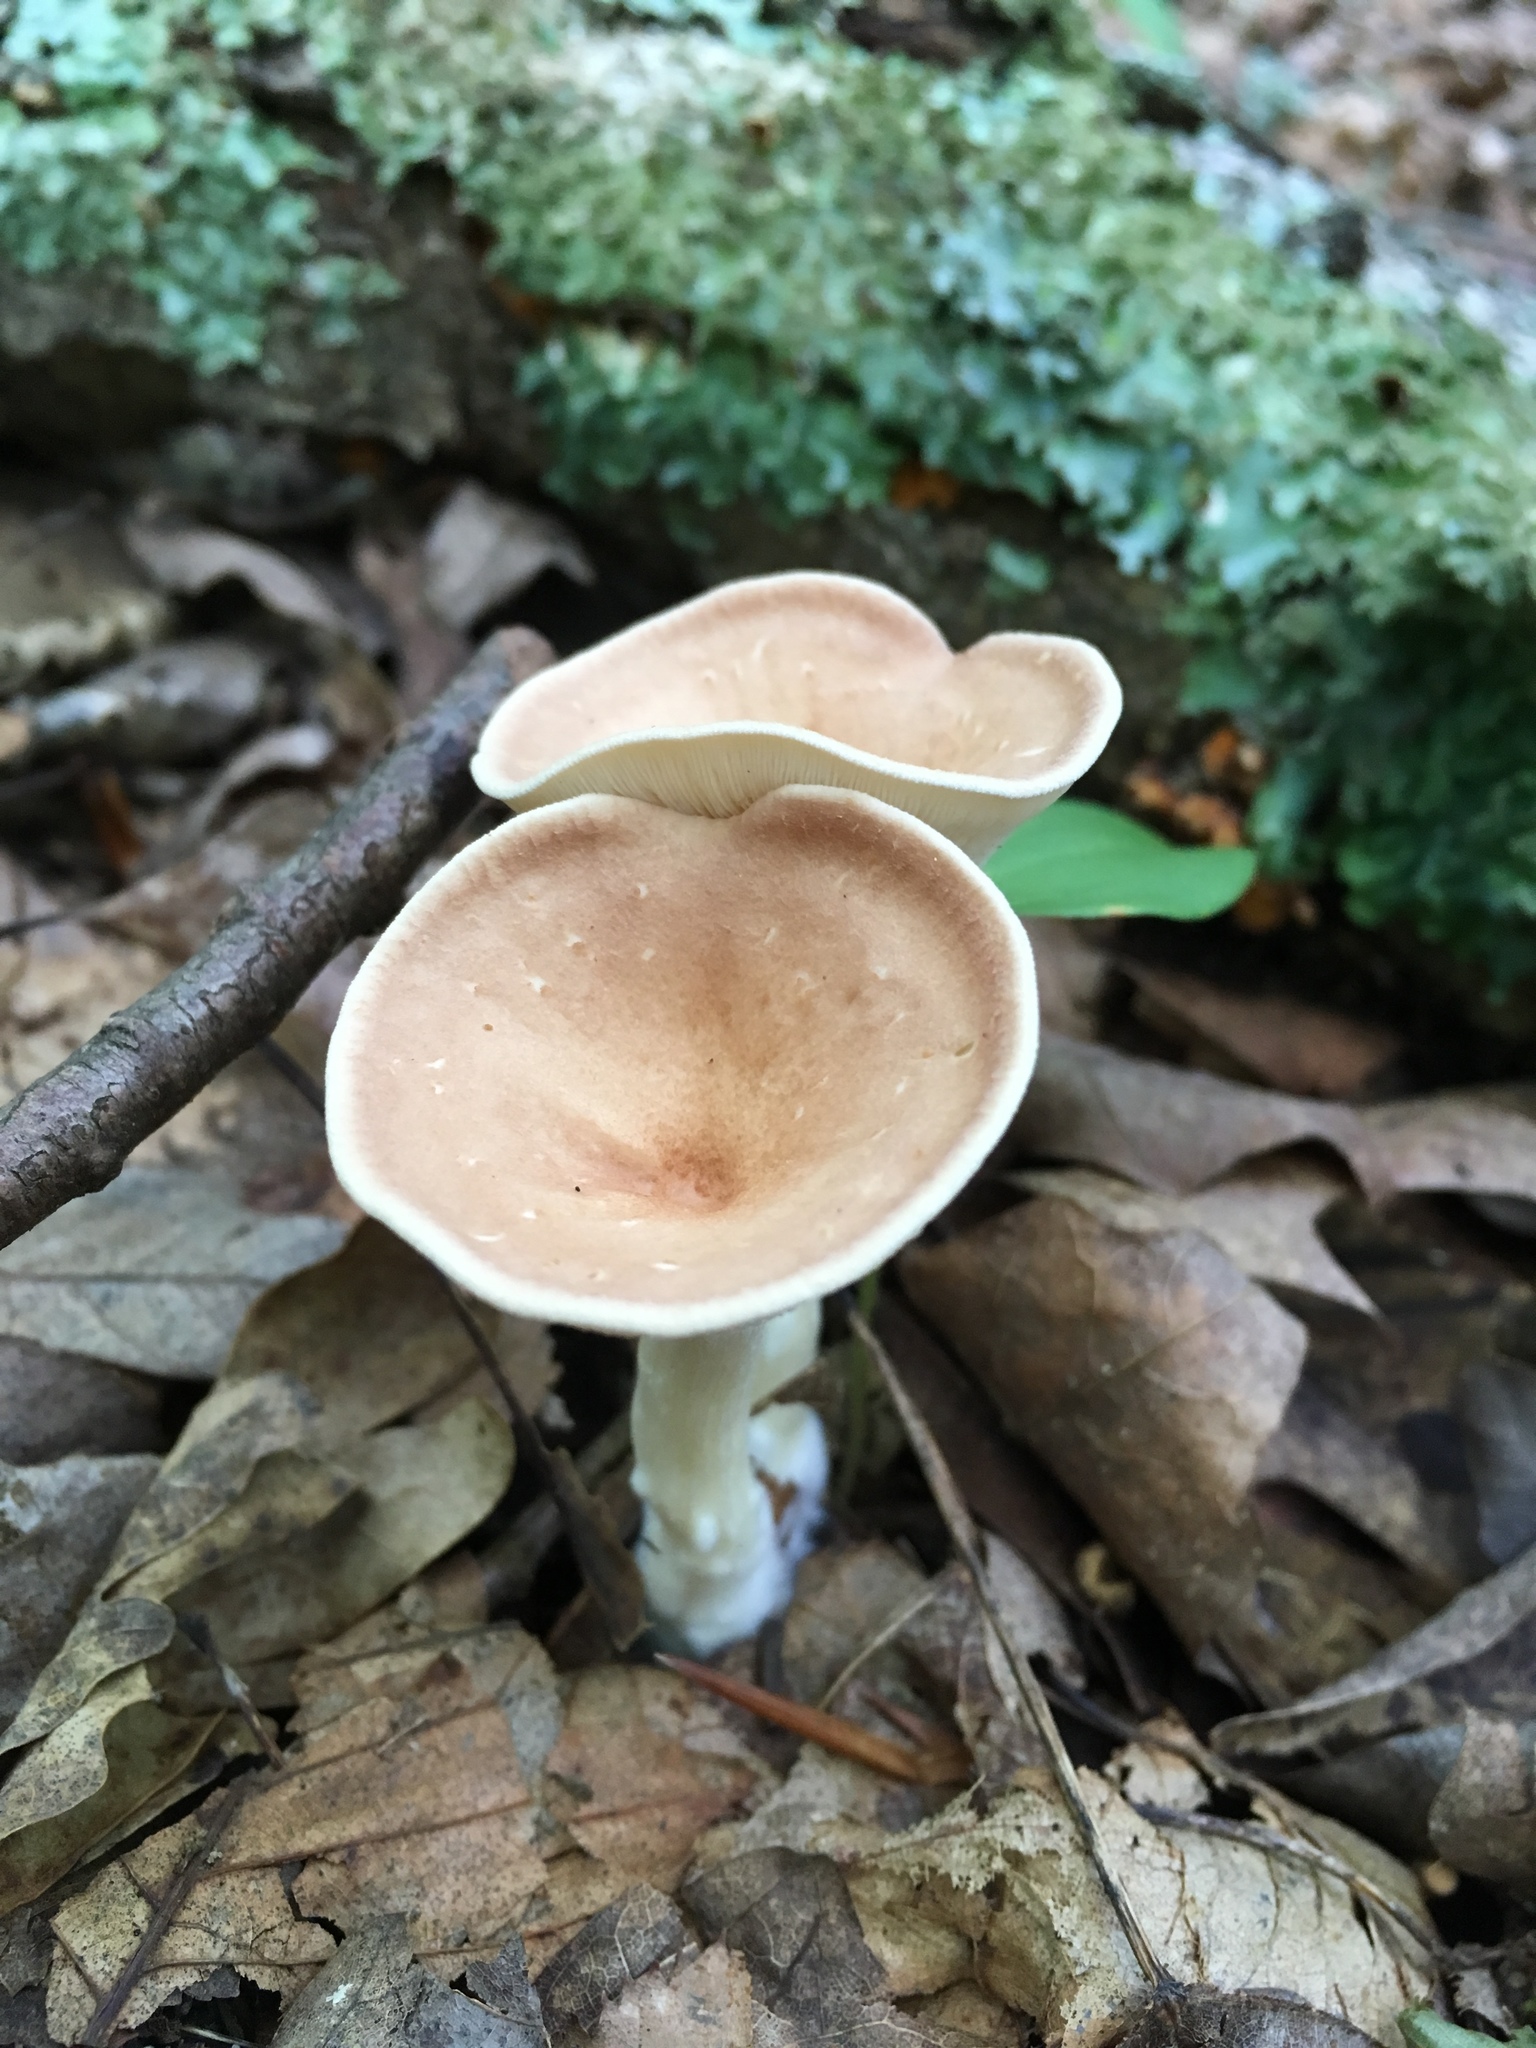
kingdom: Fungi
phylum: Basidiomycota
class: Agaricomycetes
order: Agaricales
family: Tricholomataceae
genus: Infundibulicybe
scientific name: Infundibulicybe gibba
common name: Common funnel
